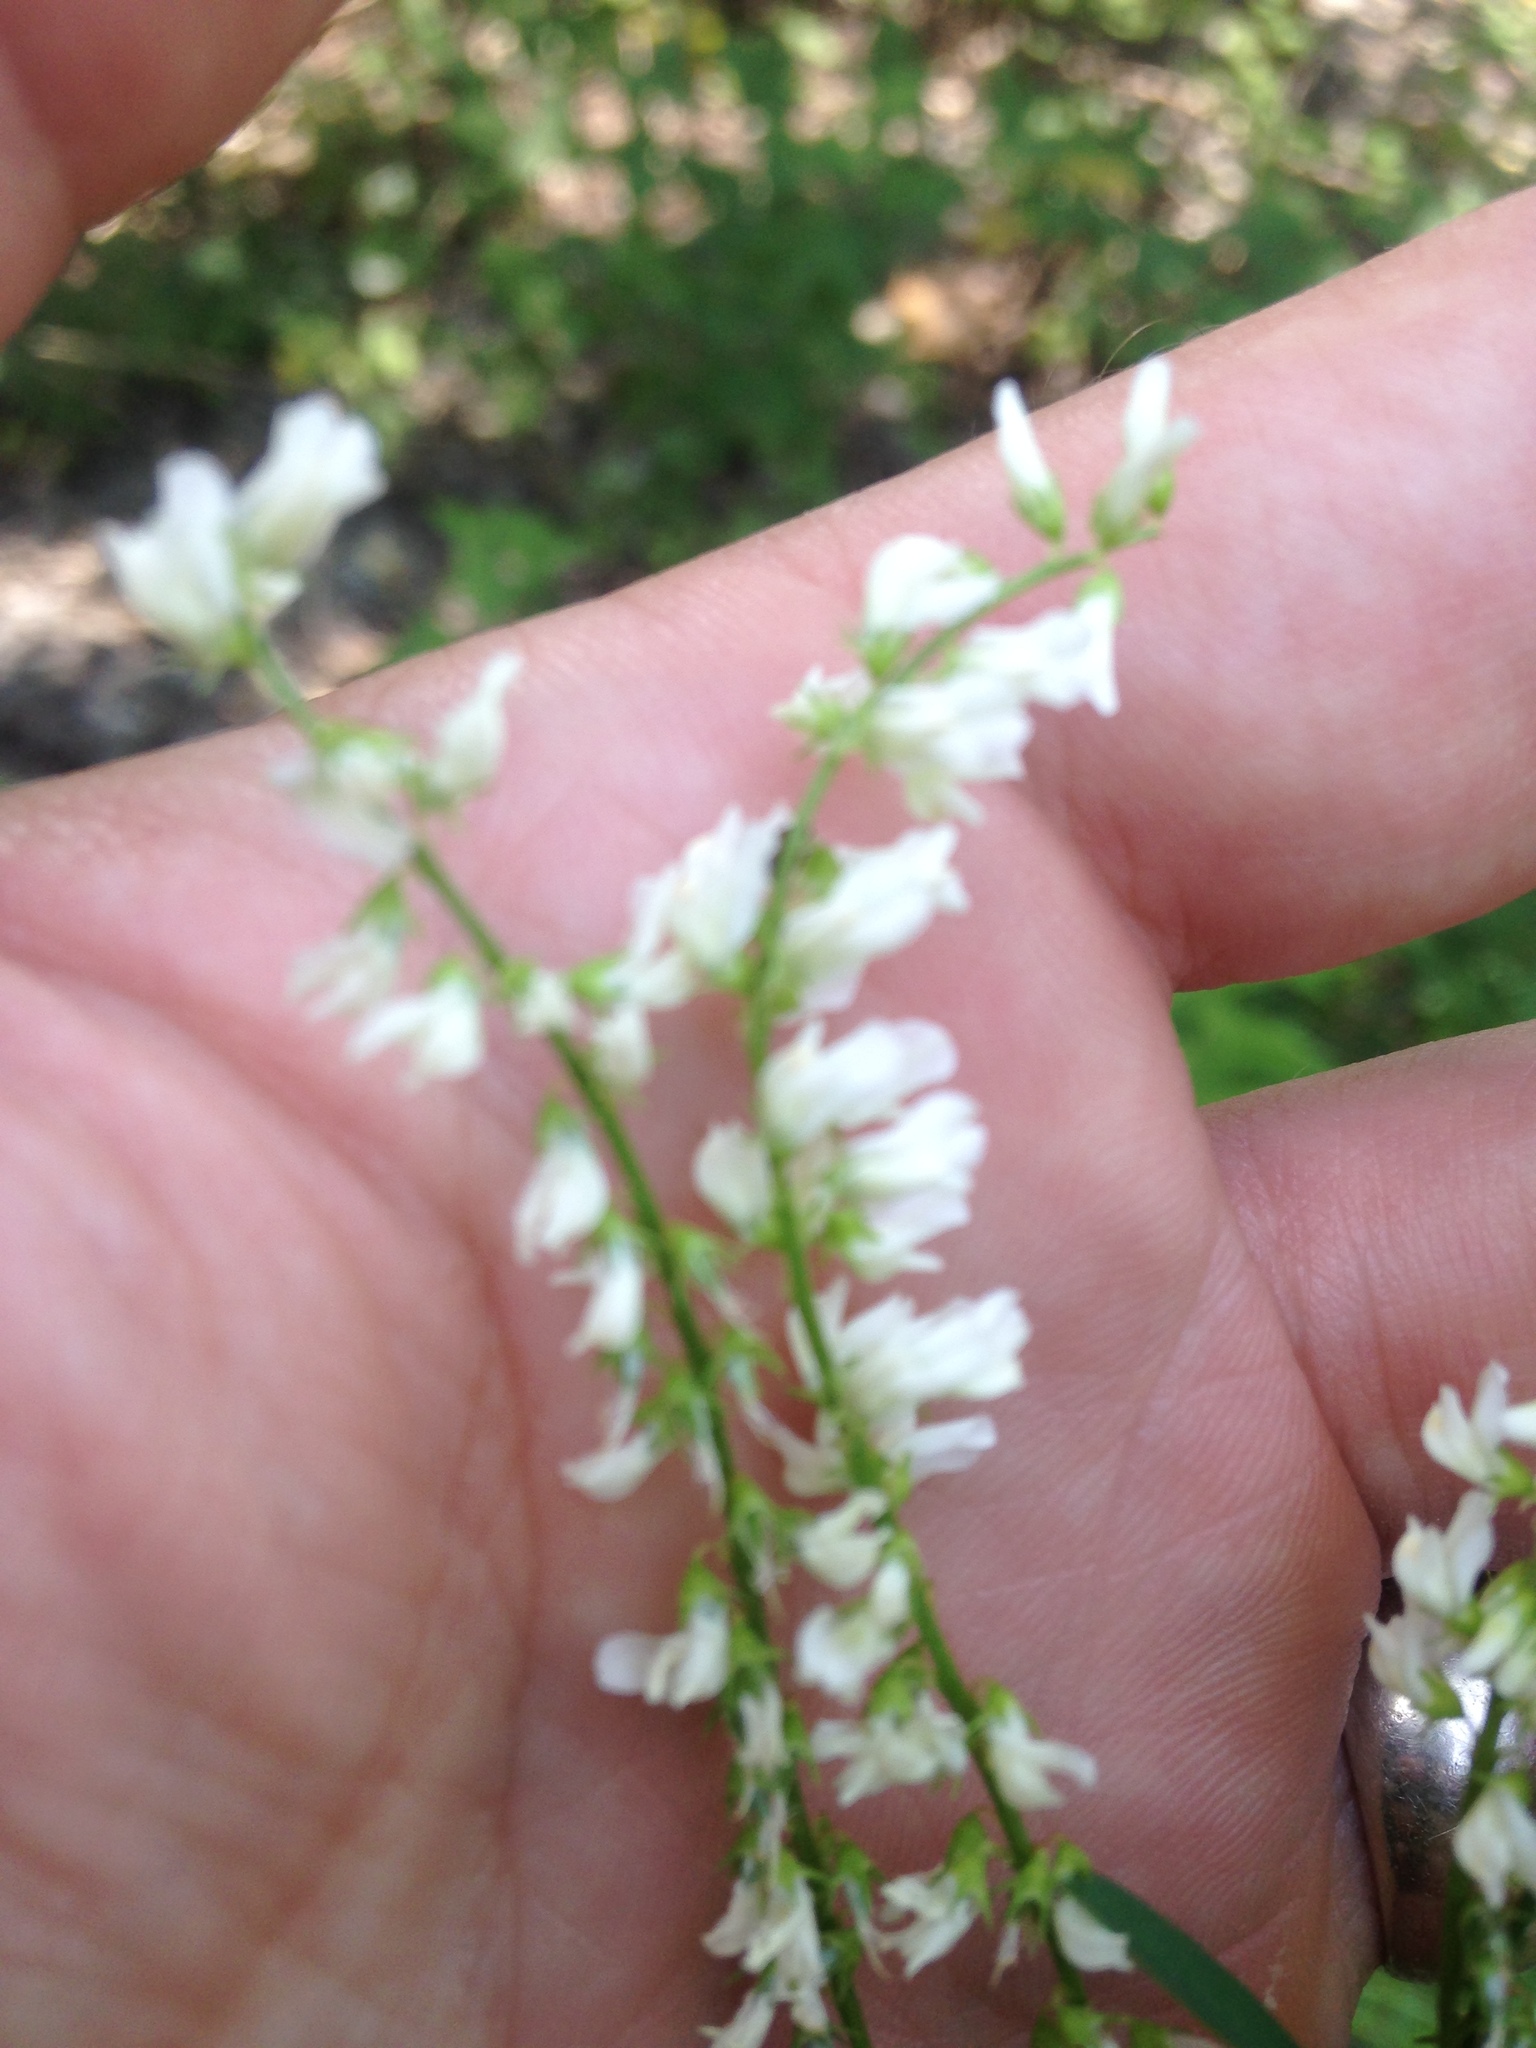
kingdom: Plantae
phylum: Tracheophyta
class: Magnoliopsida
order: Fabales
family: Fabaceae
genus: Melilotus
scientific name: Melilotus albus
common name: White melilot
